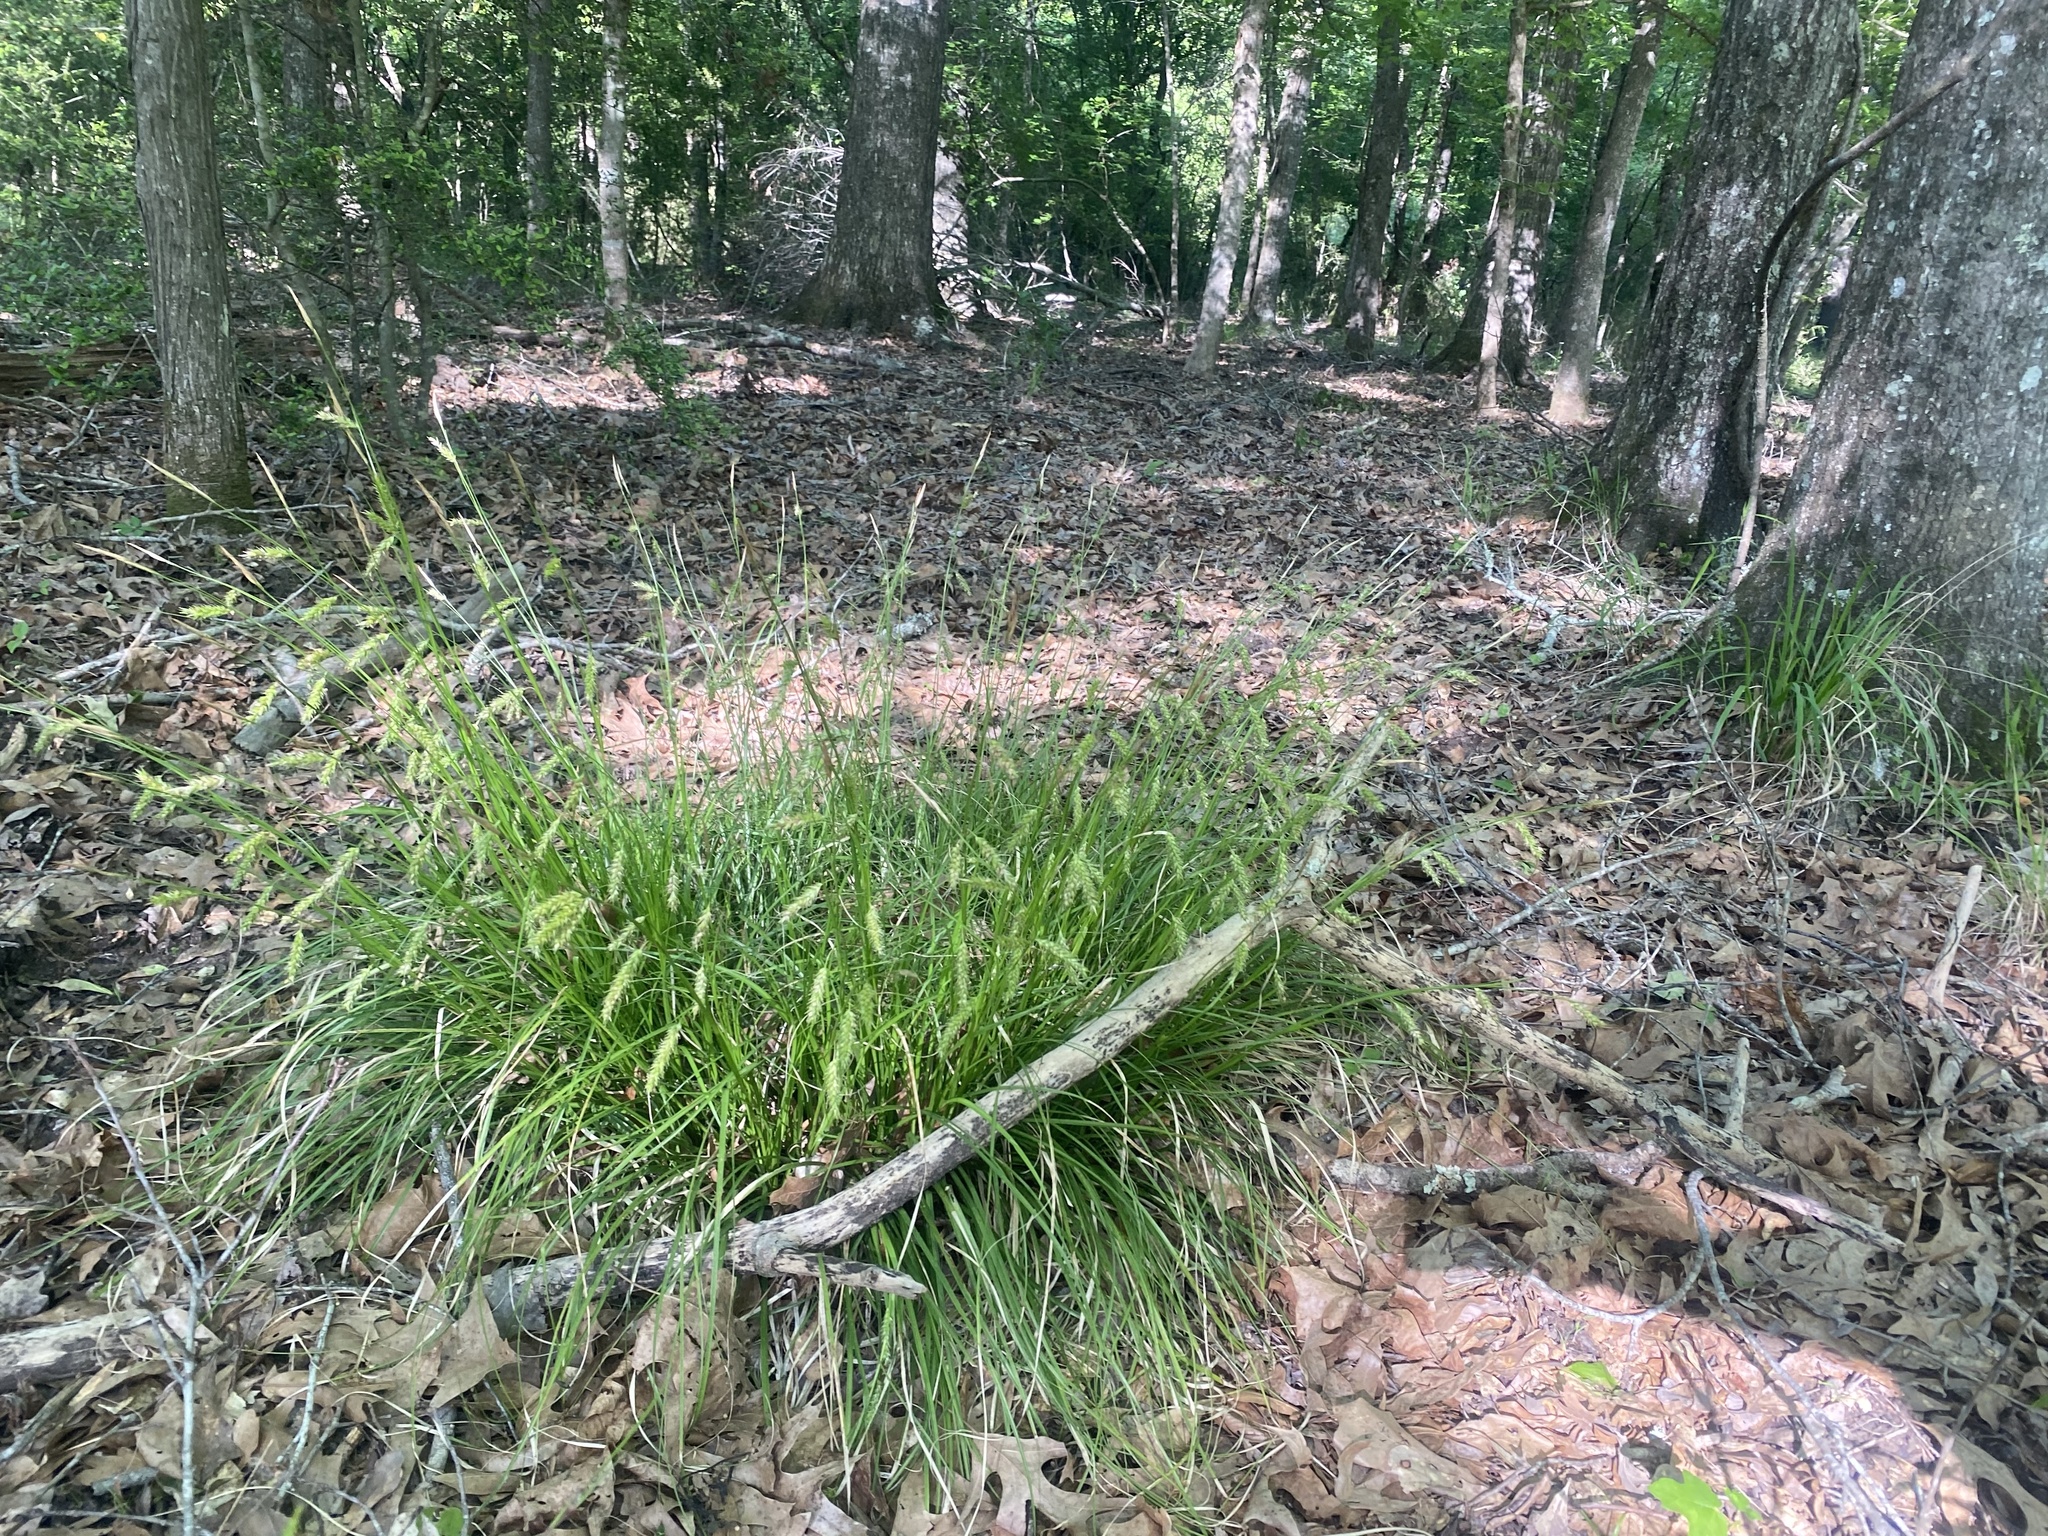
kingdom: Plantae
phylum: Tracheophyta
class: Liliopsida
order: Poales
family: Cyperaceae
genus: Carex
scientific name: Carex cherokeensis
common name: Cherokee sedge
